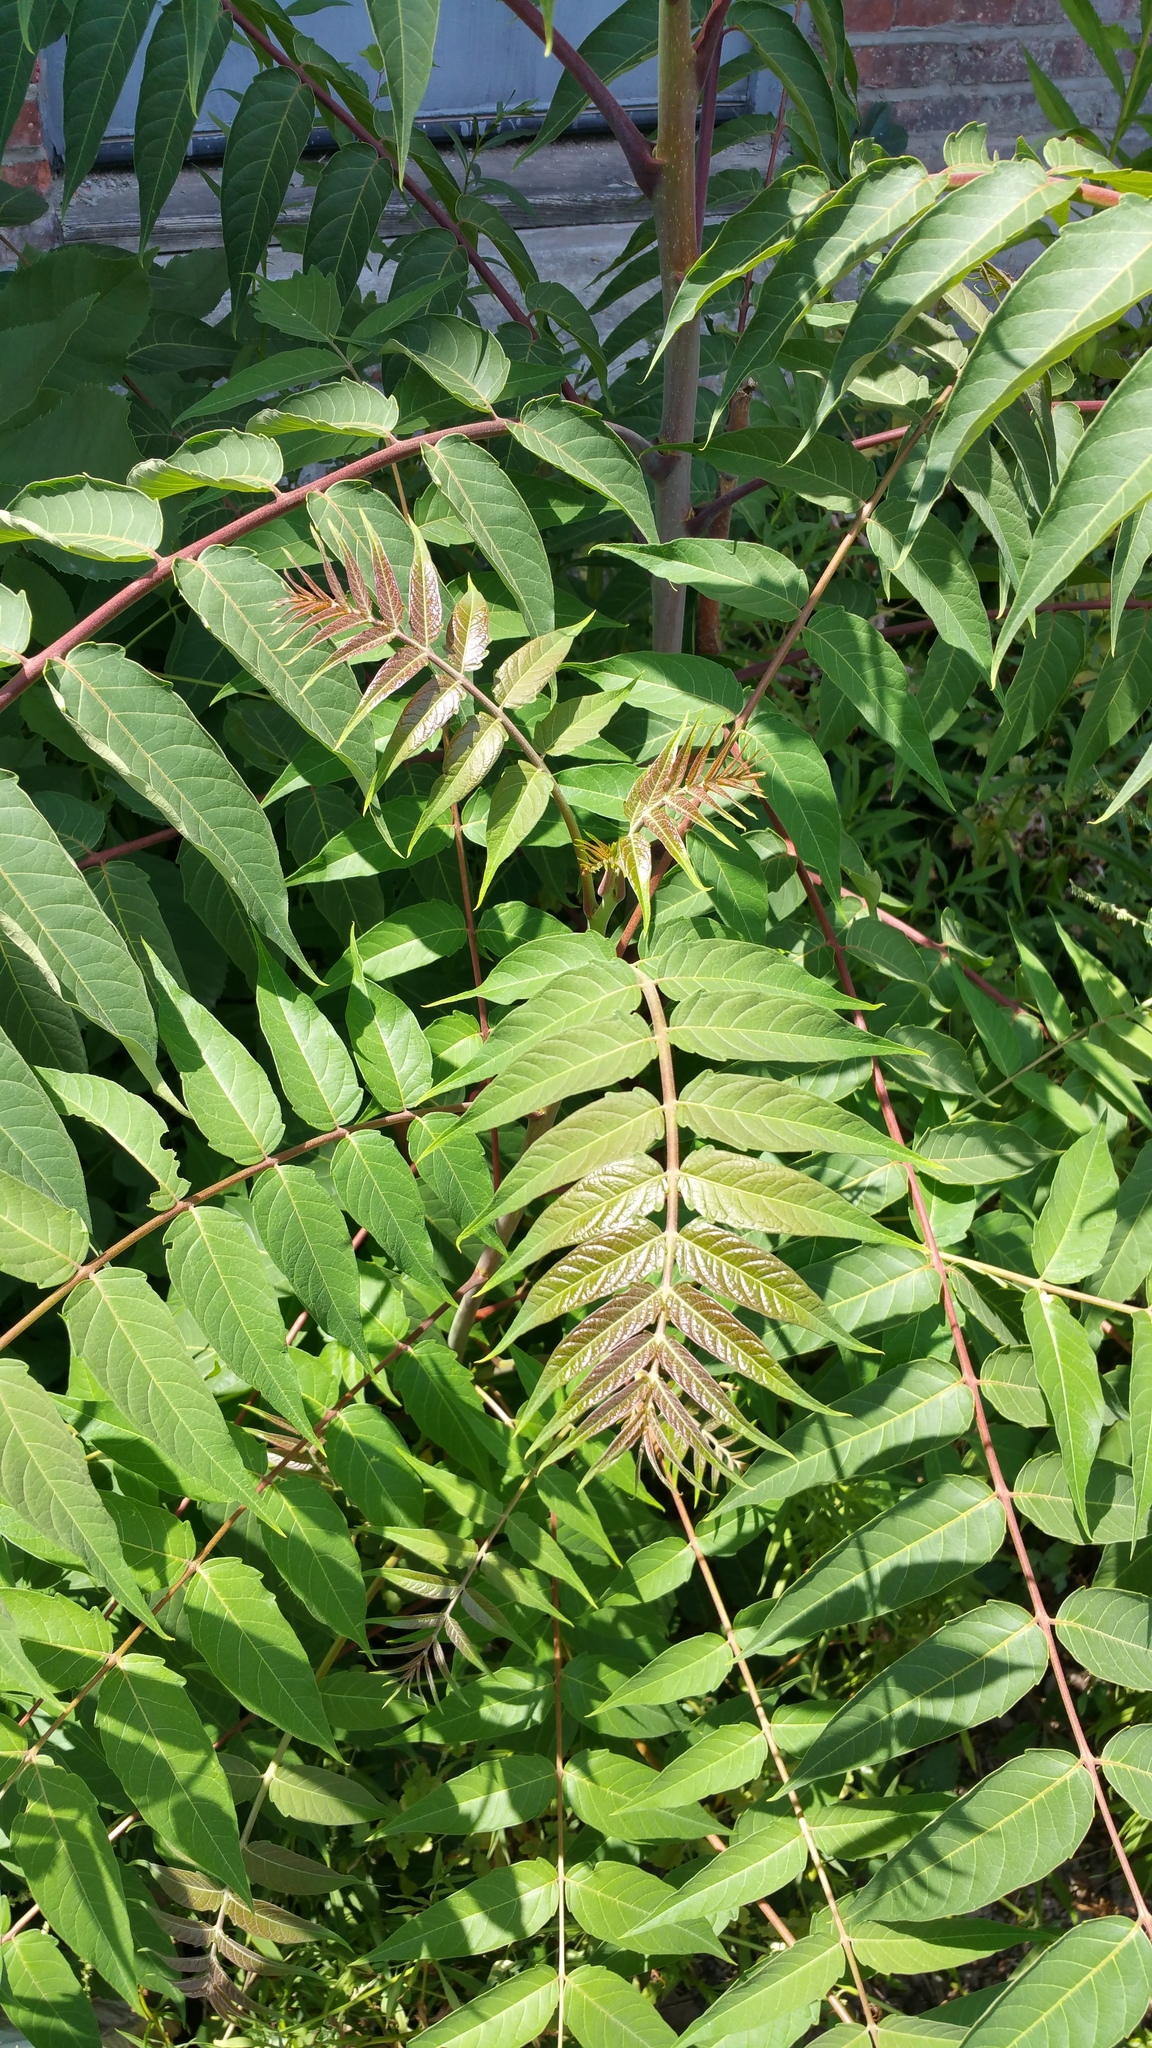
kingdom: Plantae
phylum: Tracheophyta
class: Magnoliopsida
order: Sapindales
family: Simaroubaceae
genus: Ailanthus
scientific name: Ailanthus altissima
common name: Tree-of-heaven
